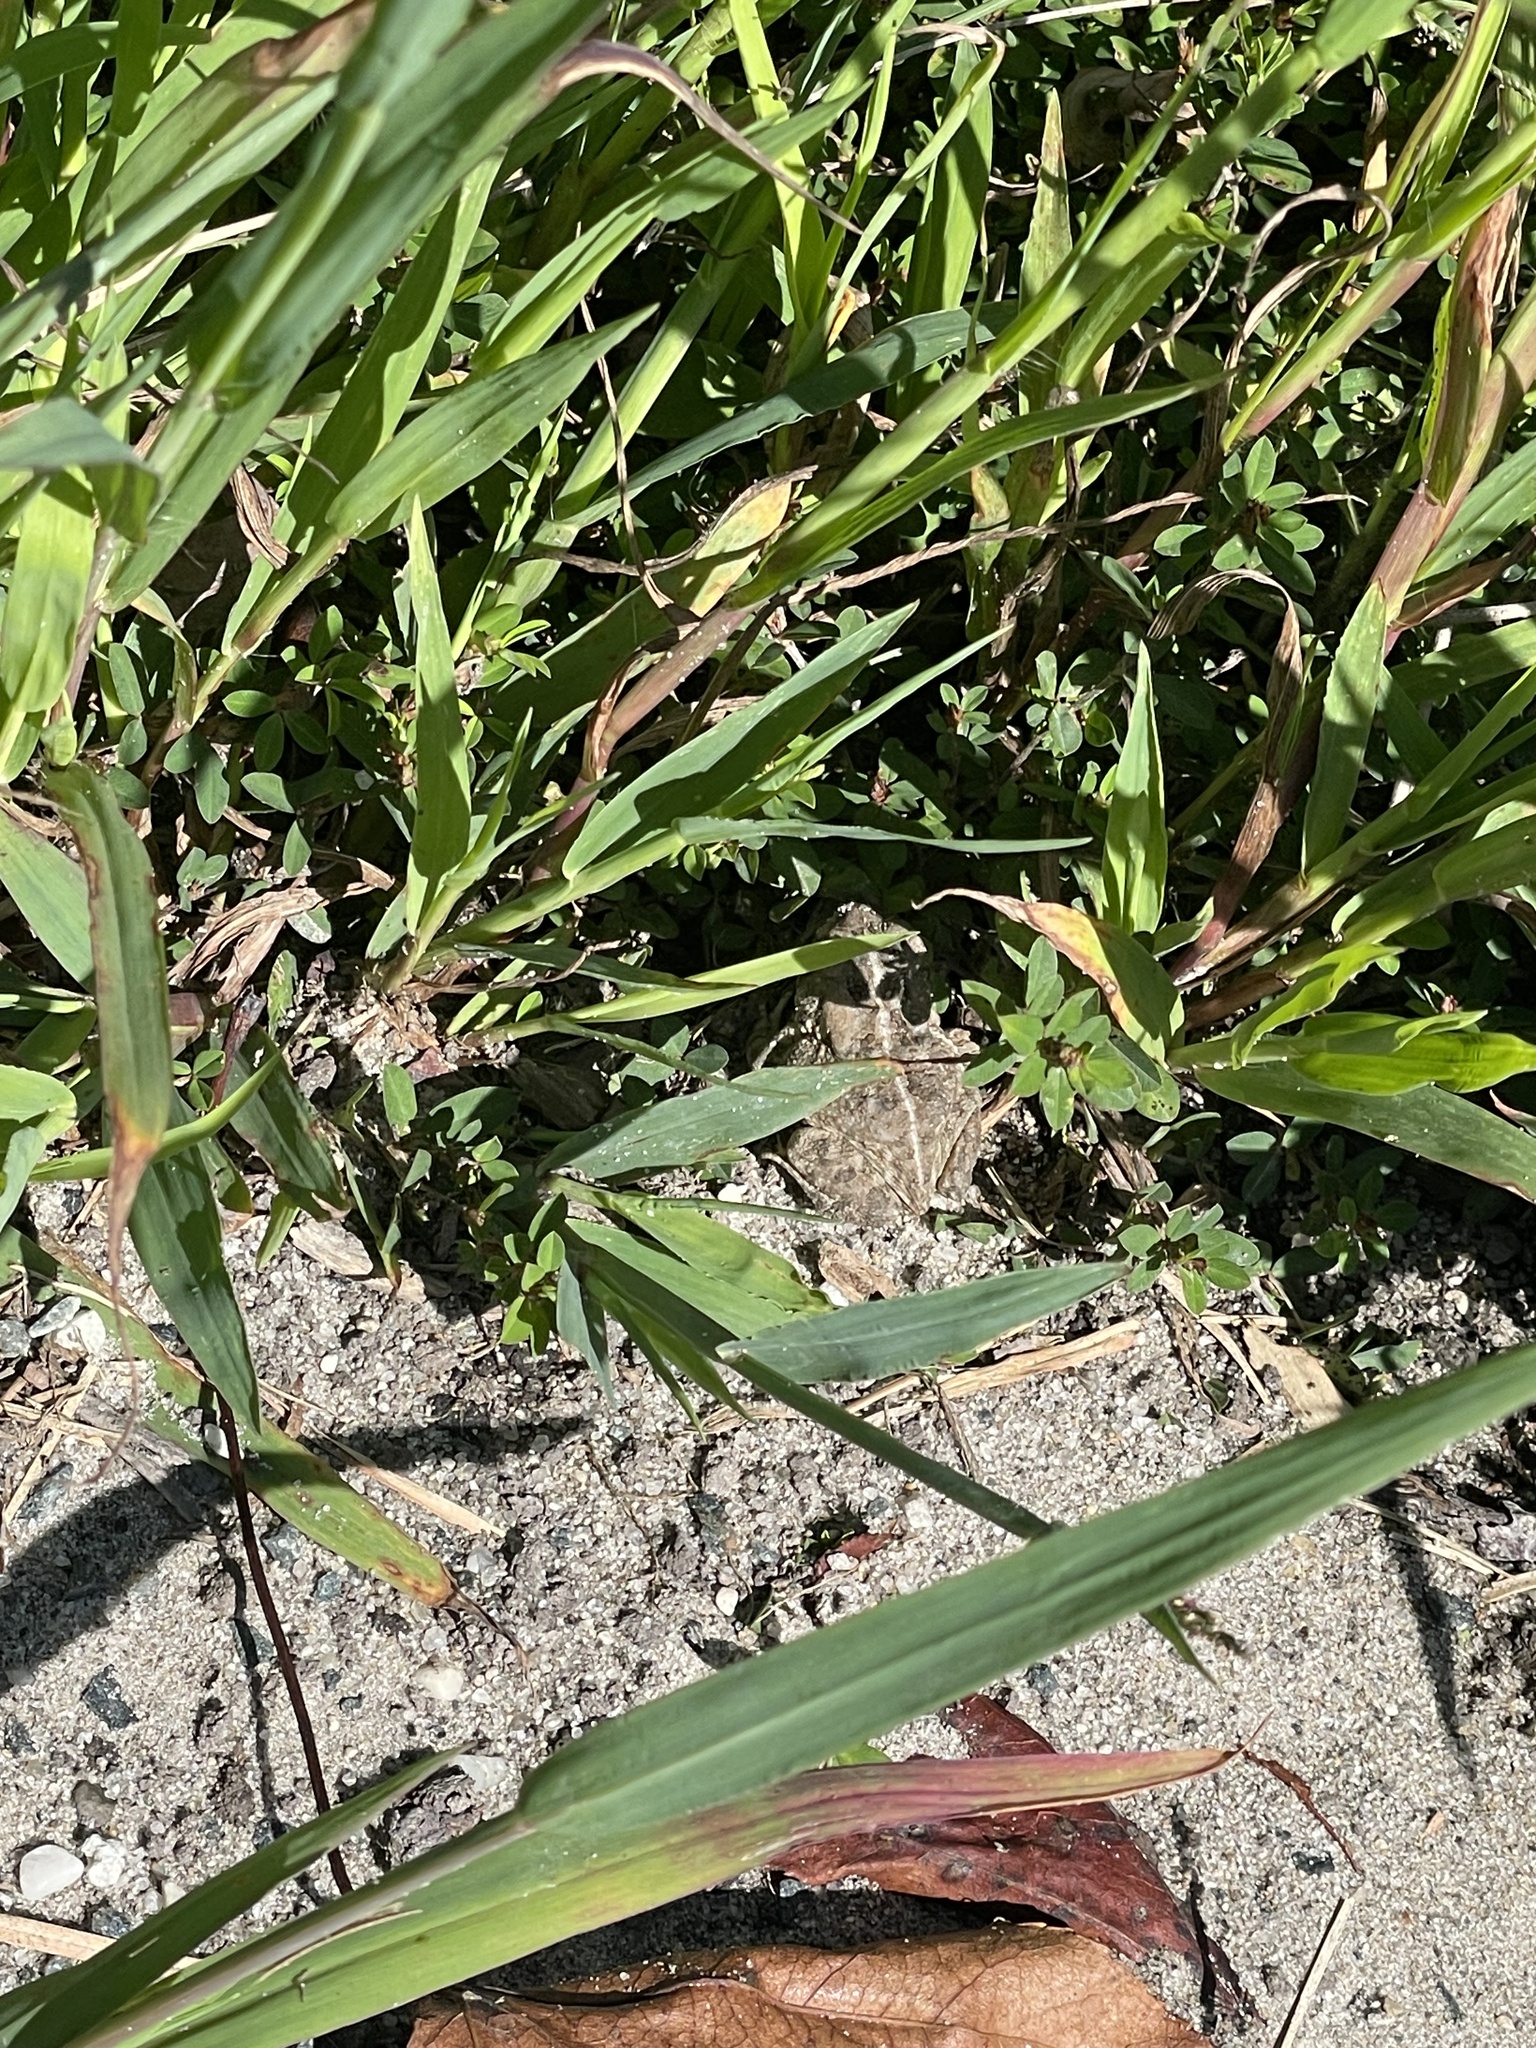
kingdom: Animalia
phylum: Chordata
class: Amphibia
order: Anura
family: Bufonidae
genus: Anaxyrus
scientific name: Anaxyrus fowleri
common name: Fowler's toad
